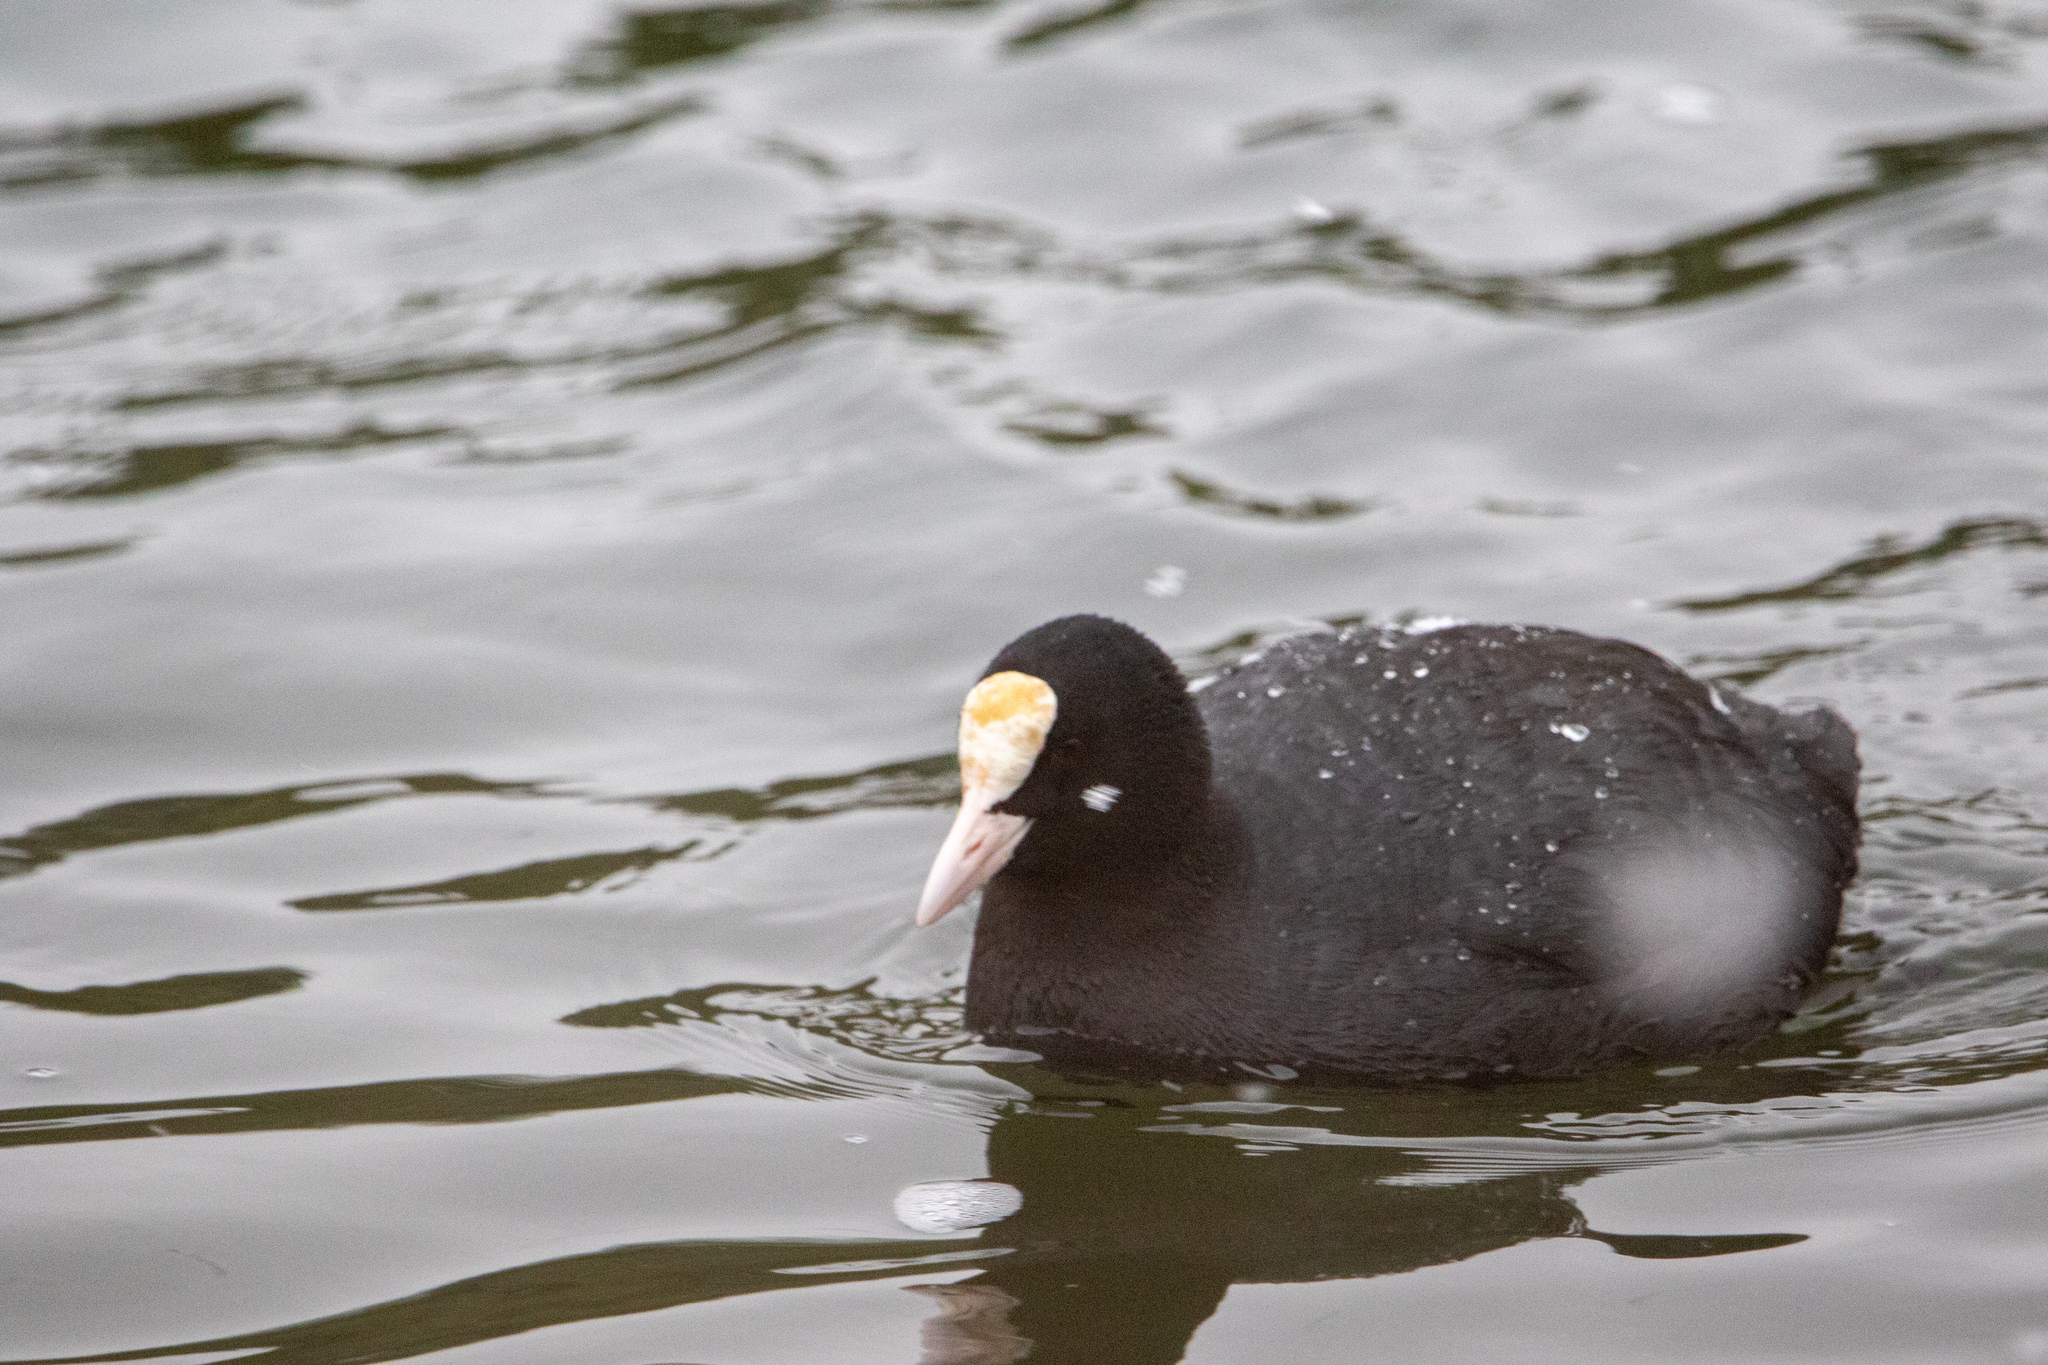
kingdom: Animalia
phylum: Chordata
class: Aves
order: Gruiformes
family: Rallidae
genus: Fulica
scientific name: Fulica atra
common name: Eurasian coot
